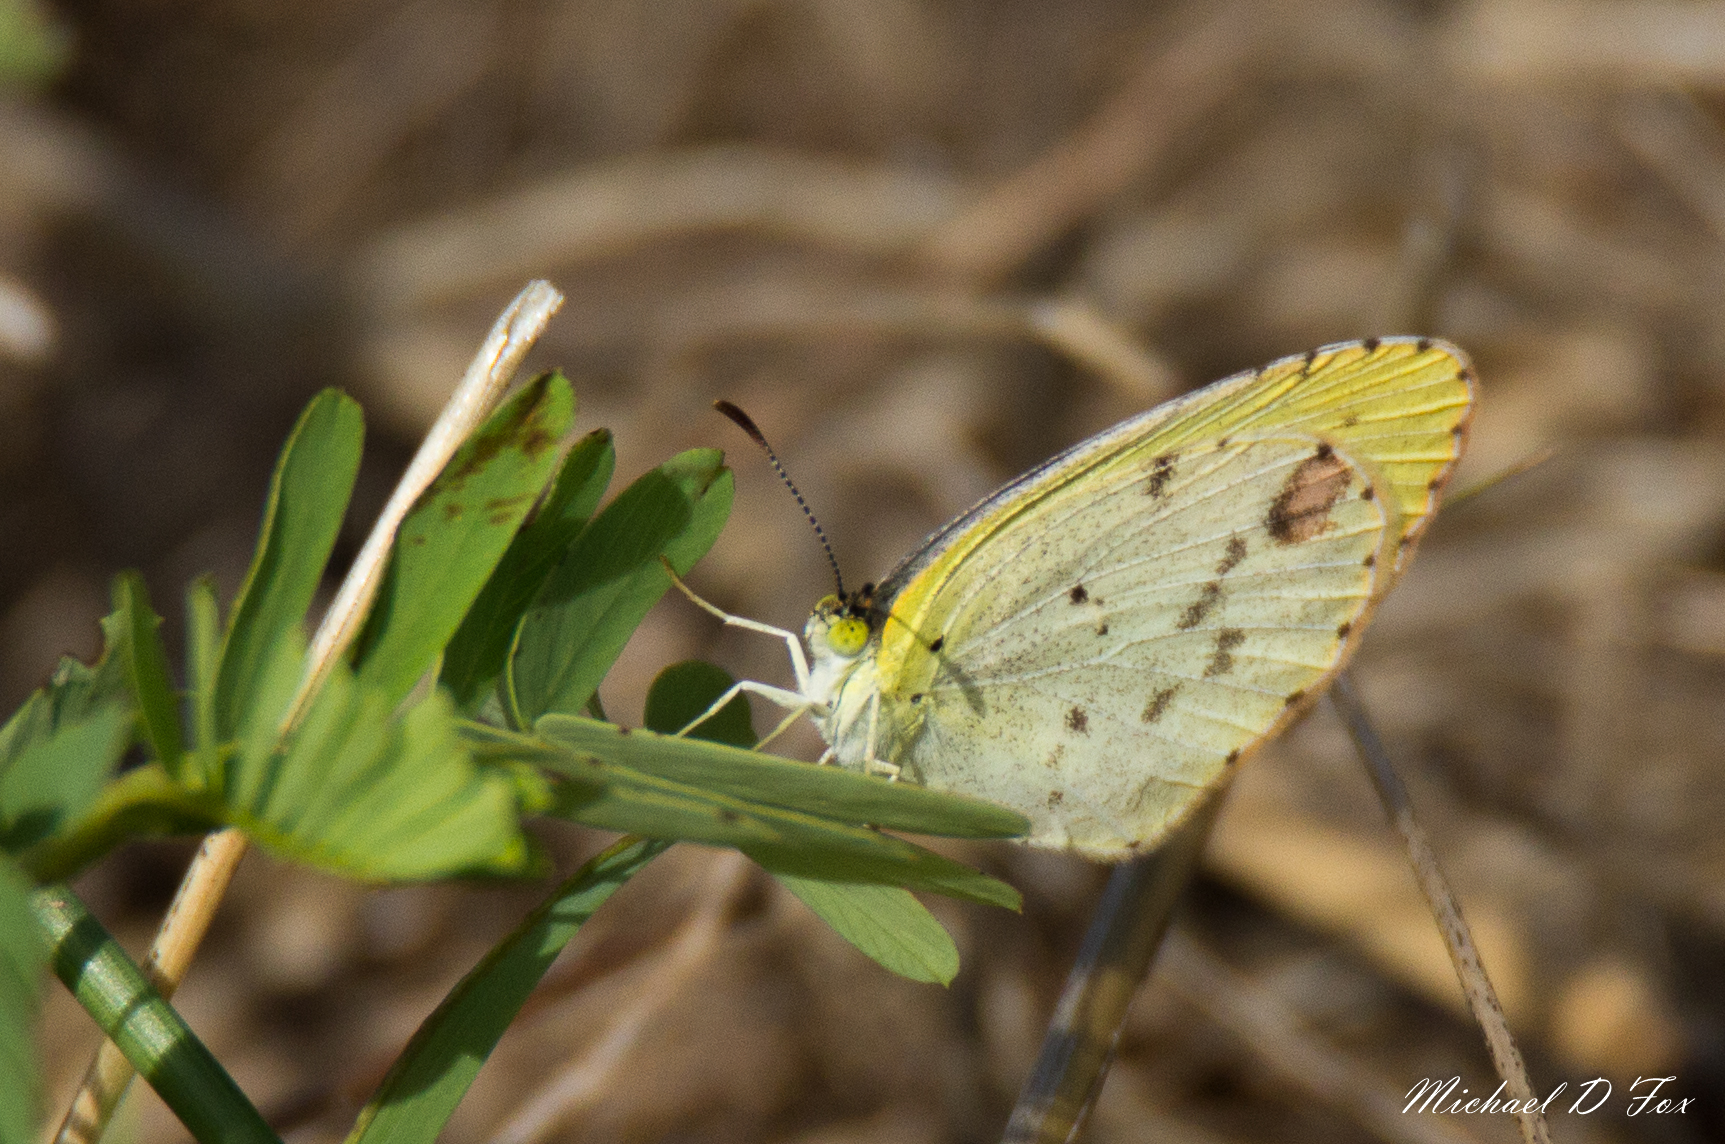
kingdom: Animalia
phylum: Arthropoda
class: Insecta
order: Lepidoptera
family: Pieridae
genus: Pyrisitia
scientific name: Pyrisitia lisa
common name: Little yellow
